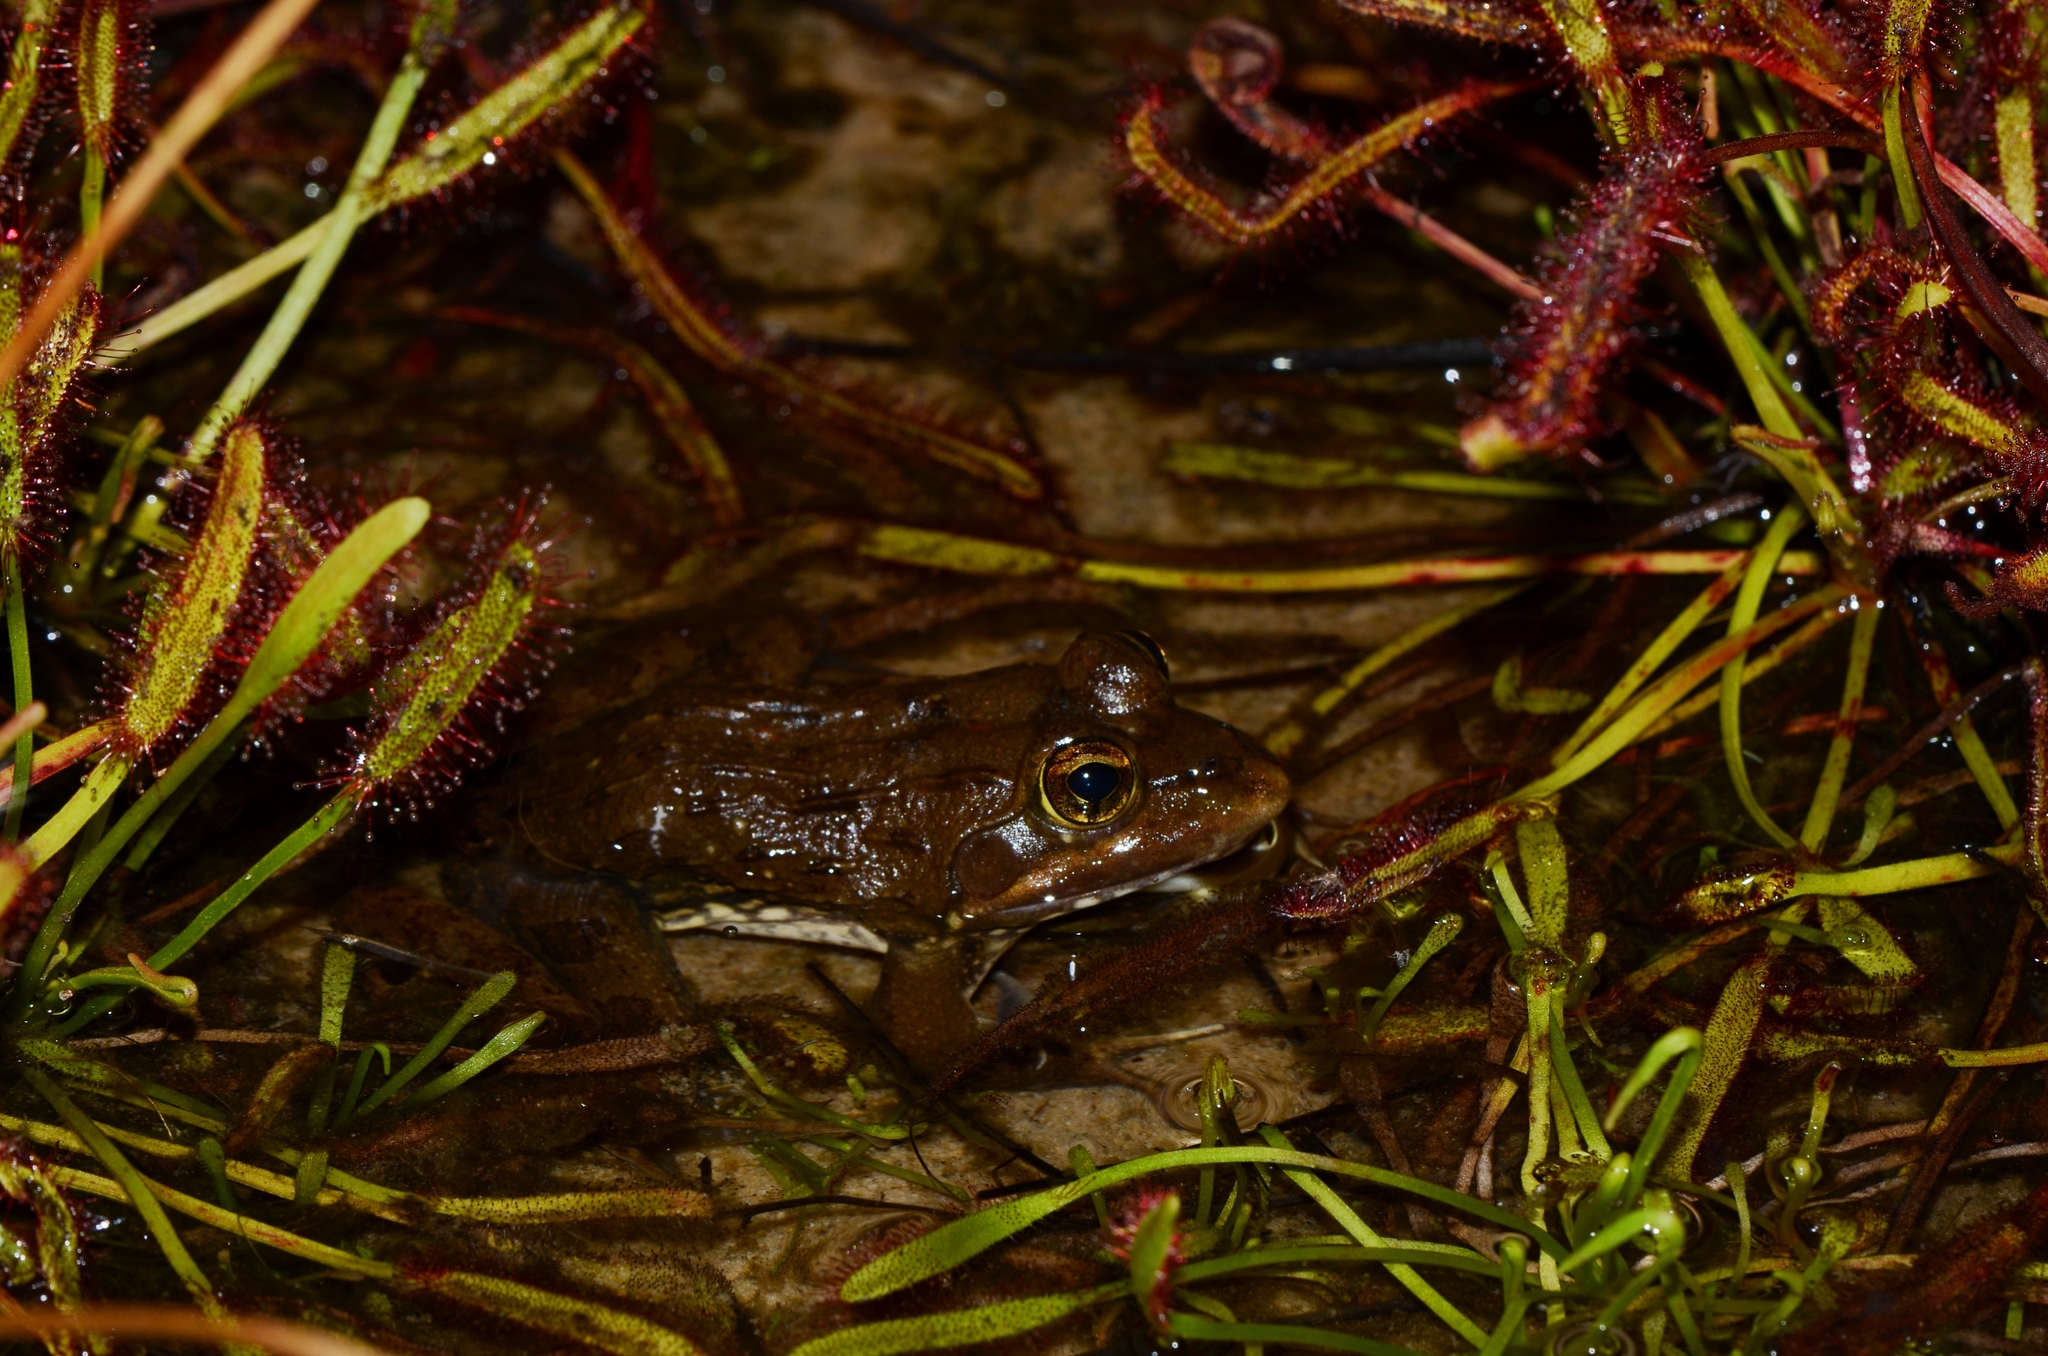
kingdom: Animalia
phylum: Chordata
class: Amphibia
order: Anura
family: Pyxicephalidae
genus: Amietia
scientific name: Amietia fuscigula
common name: Cape rana
